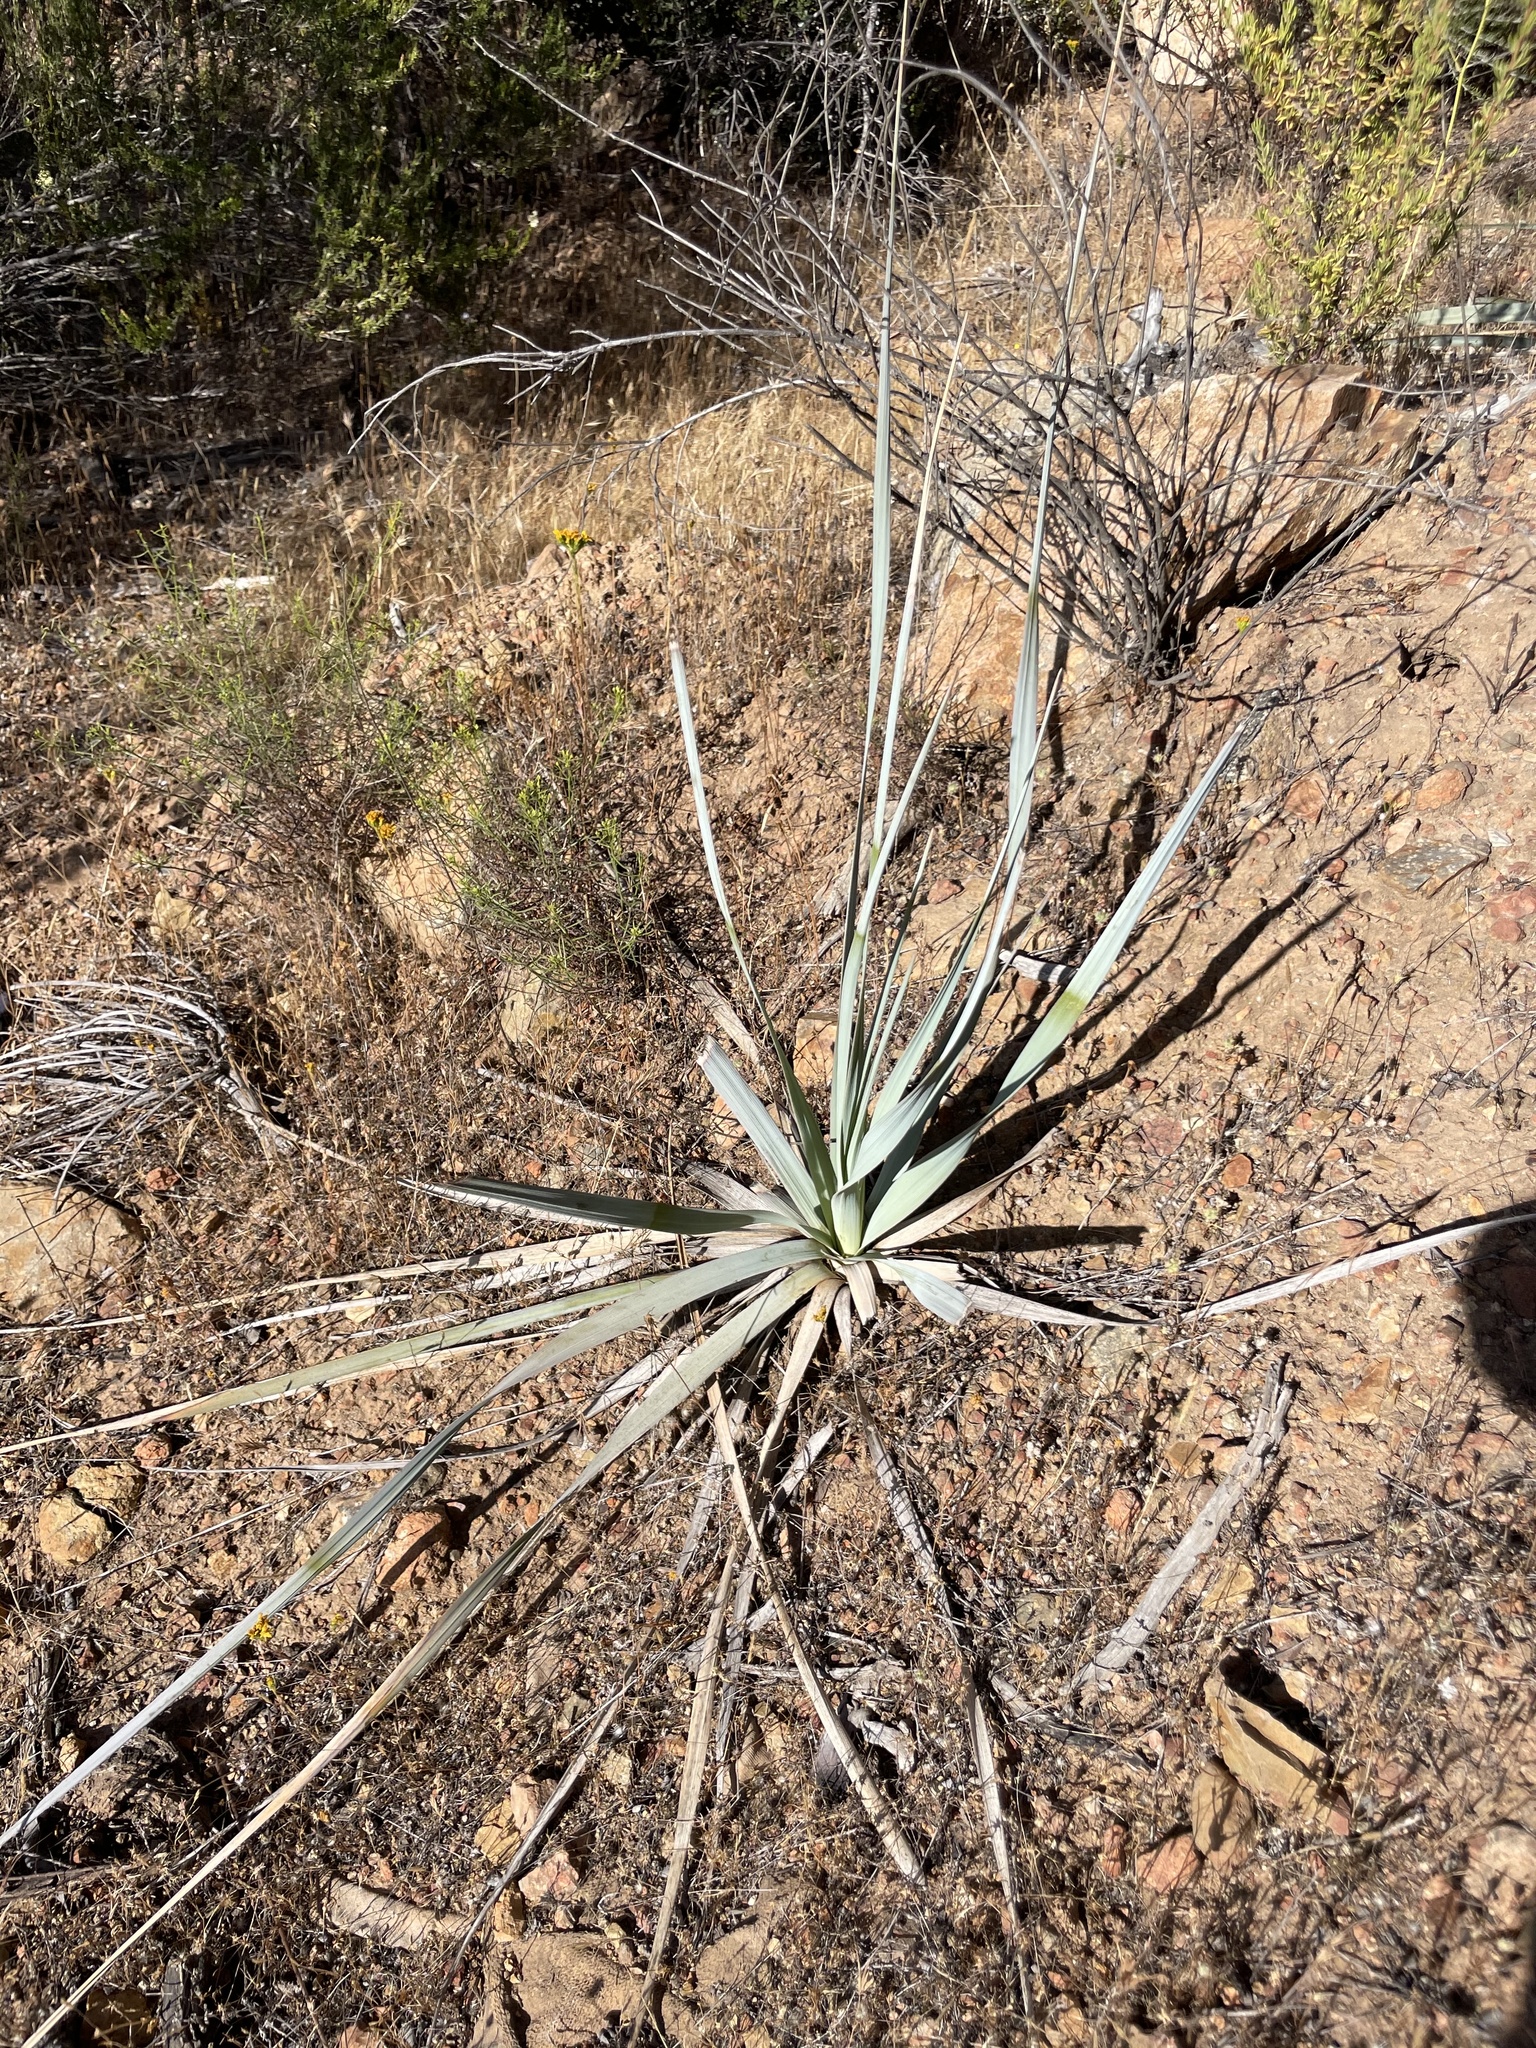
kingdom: Plantae
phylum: Tracheophyta
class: Liliopsida
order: Asparagales
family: Asparagaceae
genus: Nolina
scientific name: Nolina interrata
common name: Dehesa bear-grass
